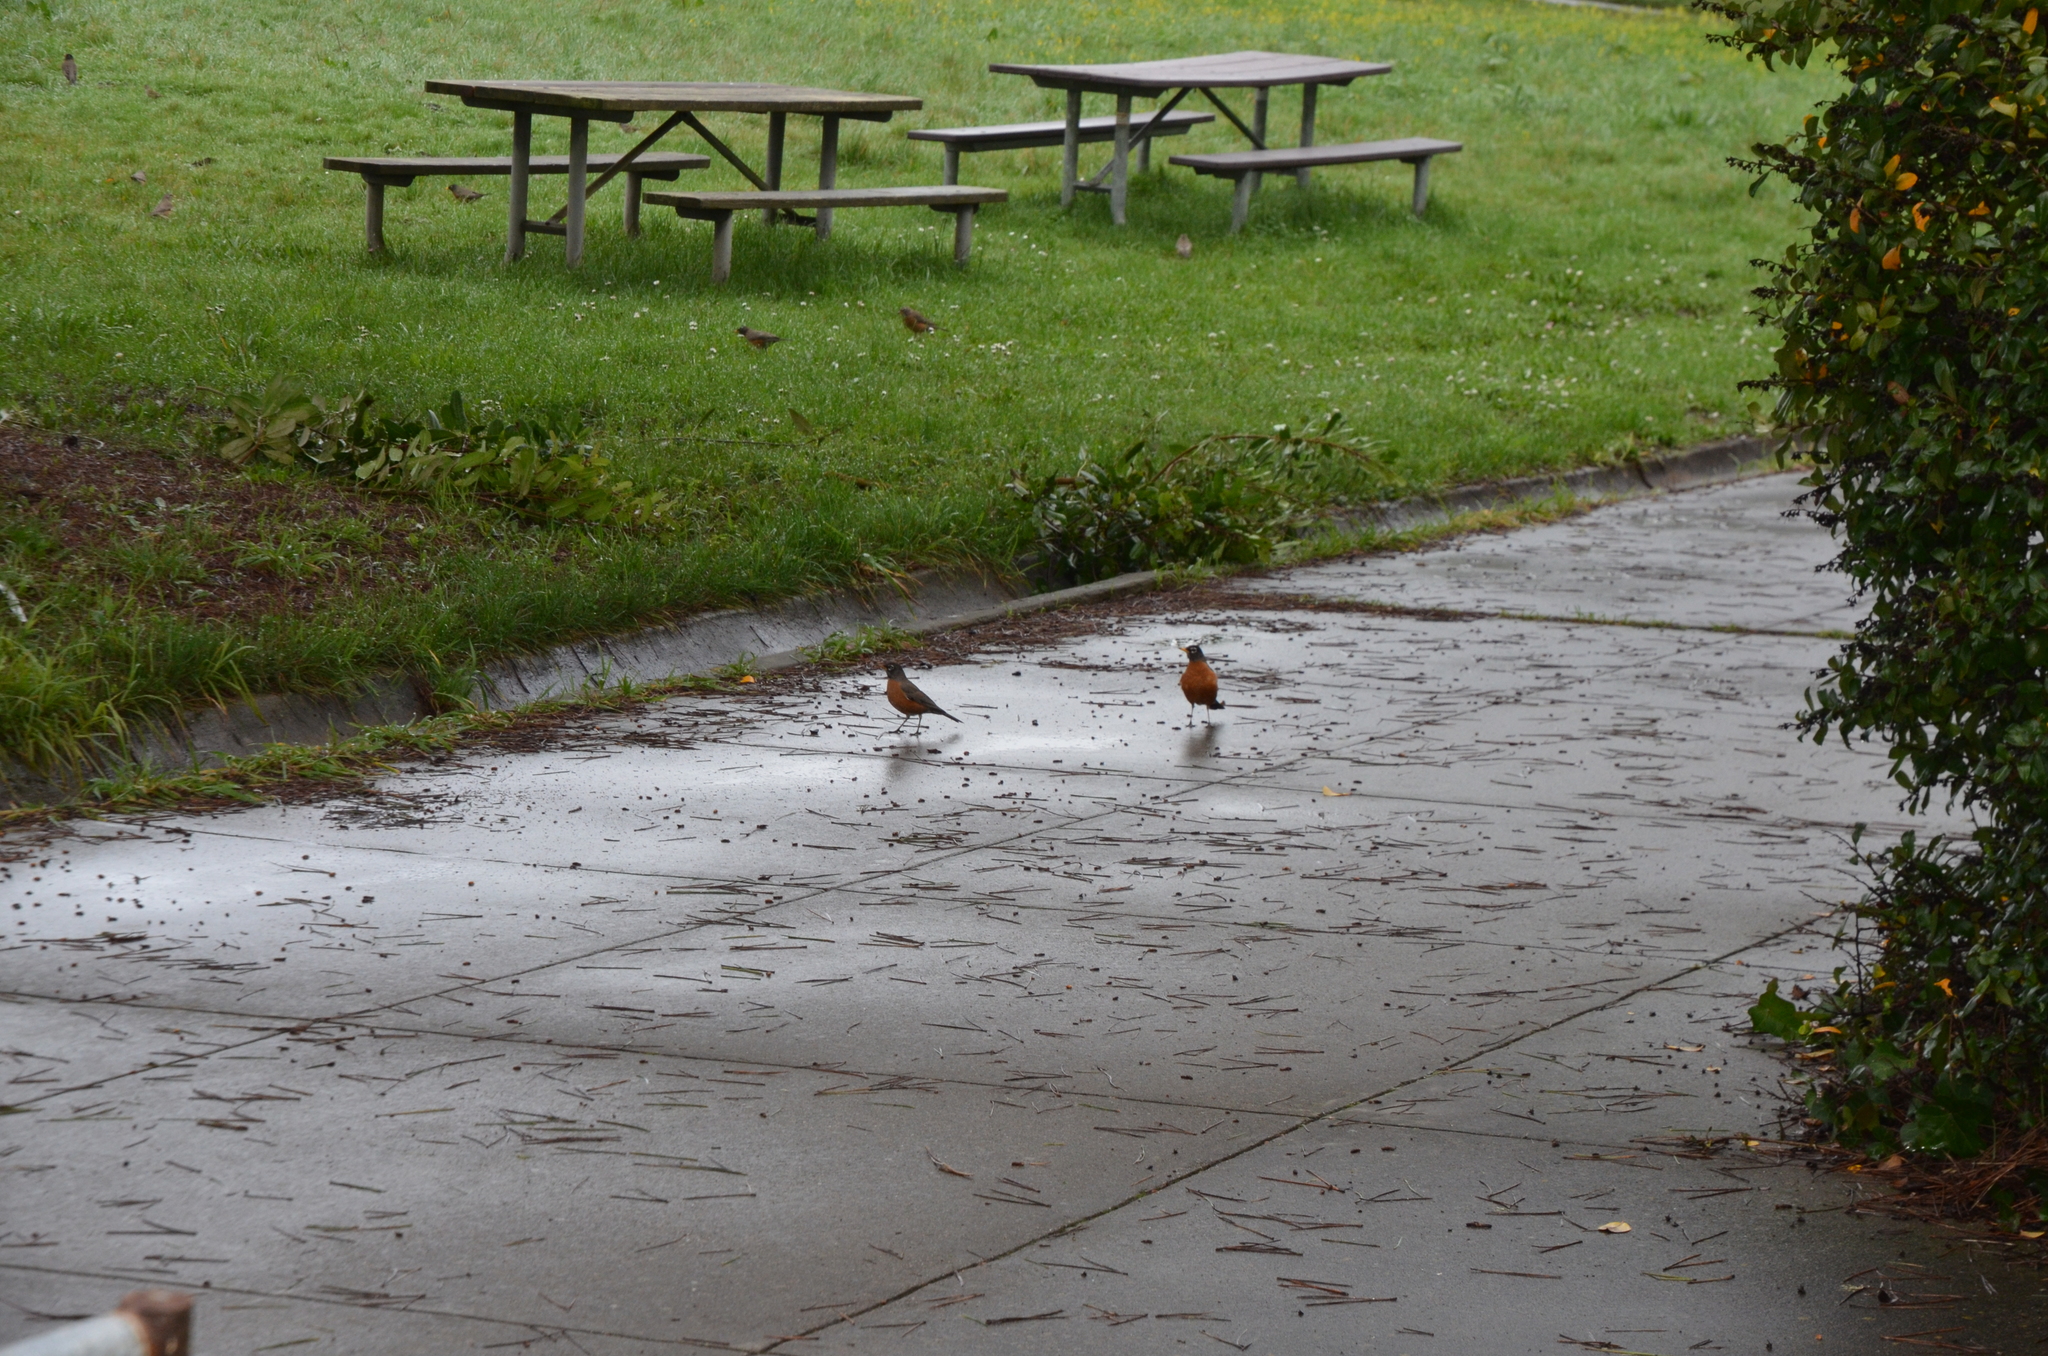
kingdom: Animalia
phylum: Chordata
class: Aves
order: Passeriformes
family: Turdidae
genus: Turdus
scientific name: Turdus migratorius
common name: American robin
